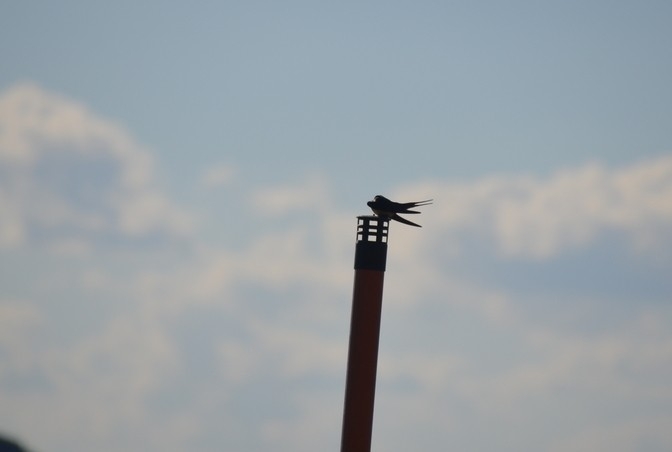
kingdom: Animalia
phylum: Chordata
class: Aves
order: Passeriformes
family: Hirundinidae
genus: Hirundo
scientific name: Hirundo rustica
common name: Barn swallow
